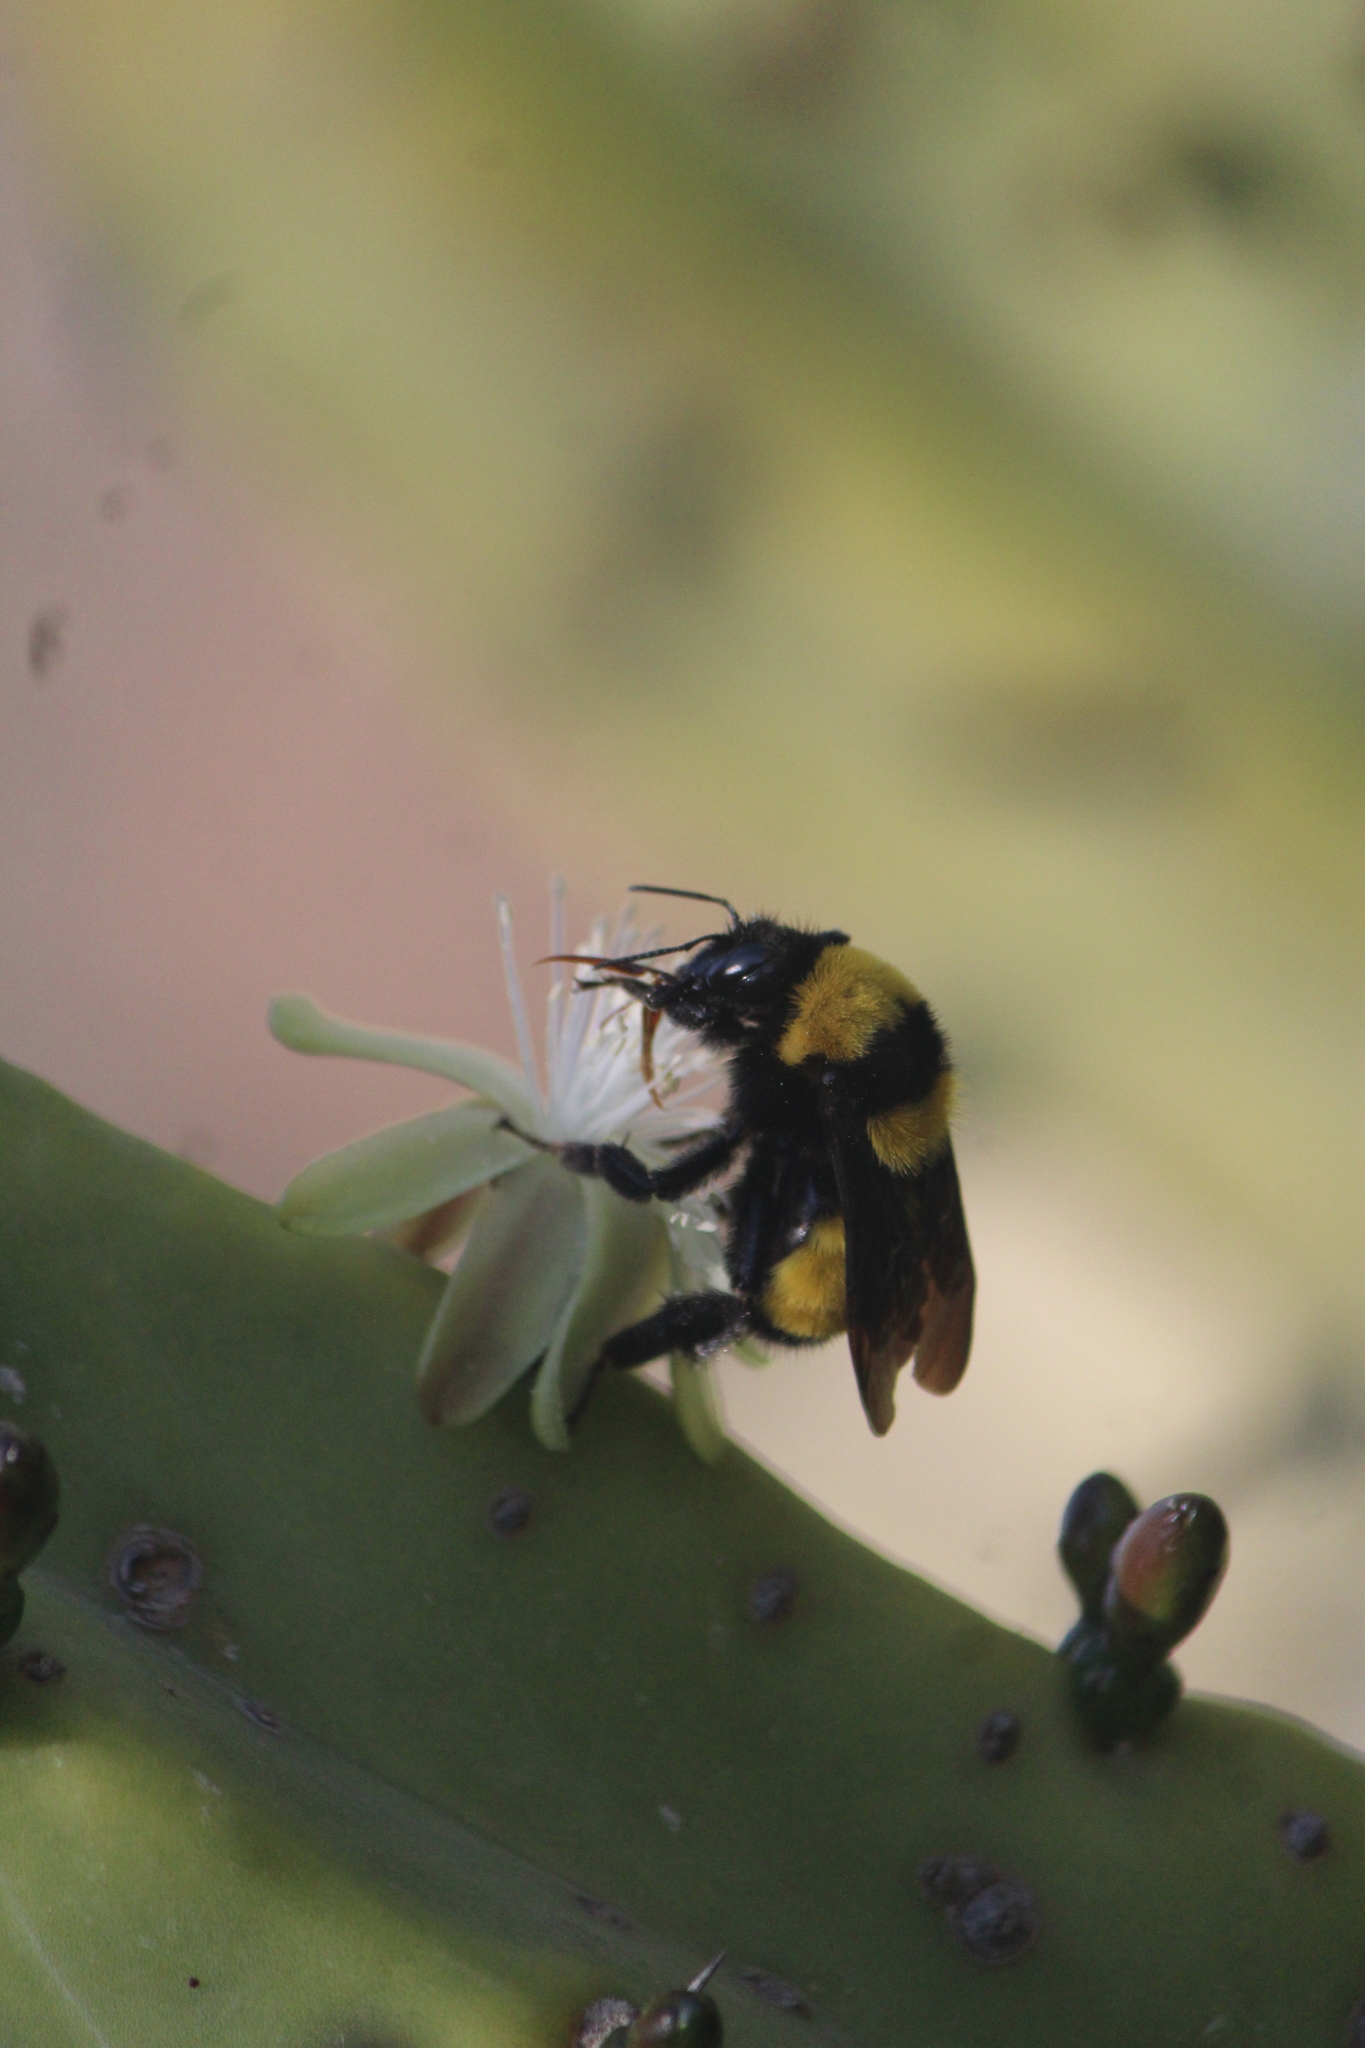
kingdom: Animalia
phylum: Arthropoda
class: Insecta
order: Hymenoptera
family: Apidae
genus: Bombus
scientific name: Bombus sonorus
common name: Sonoran bumble bee
